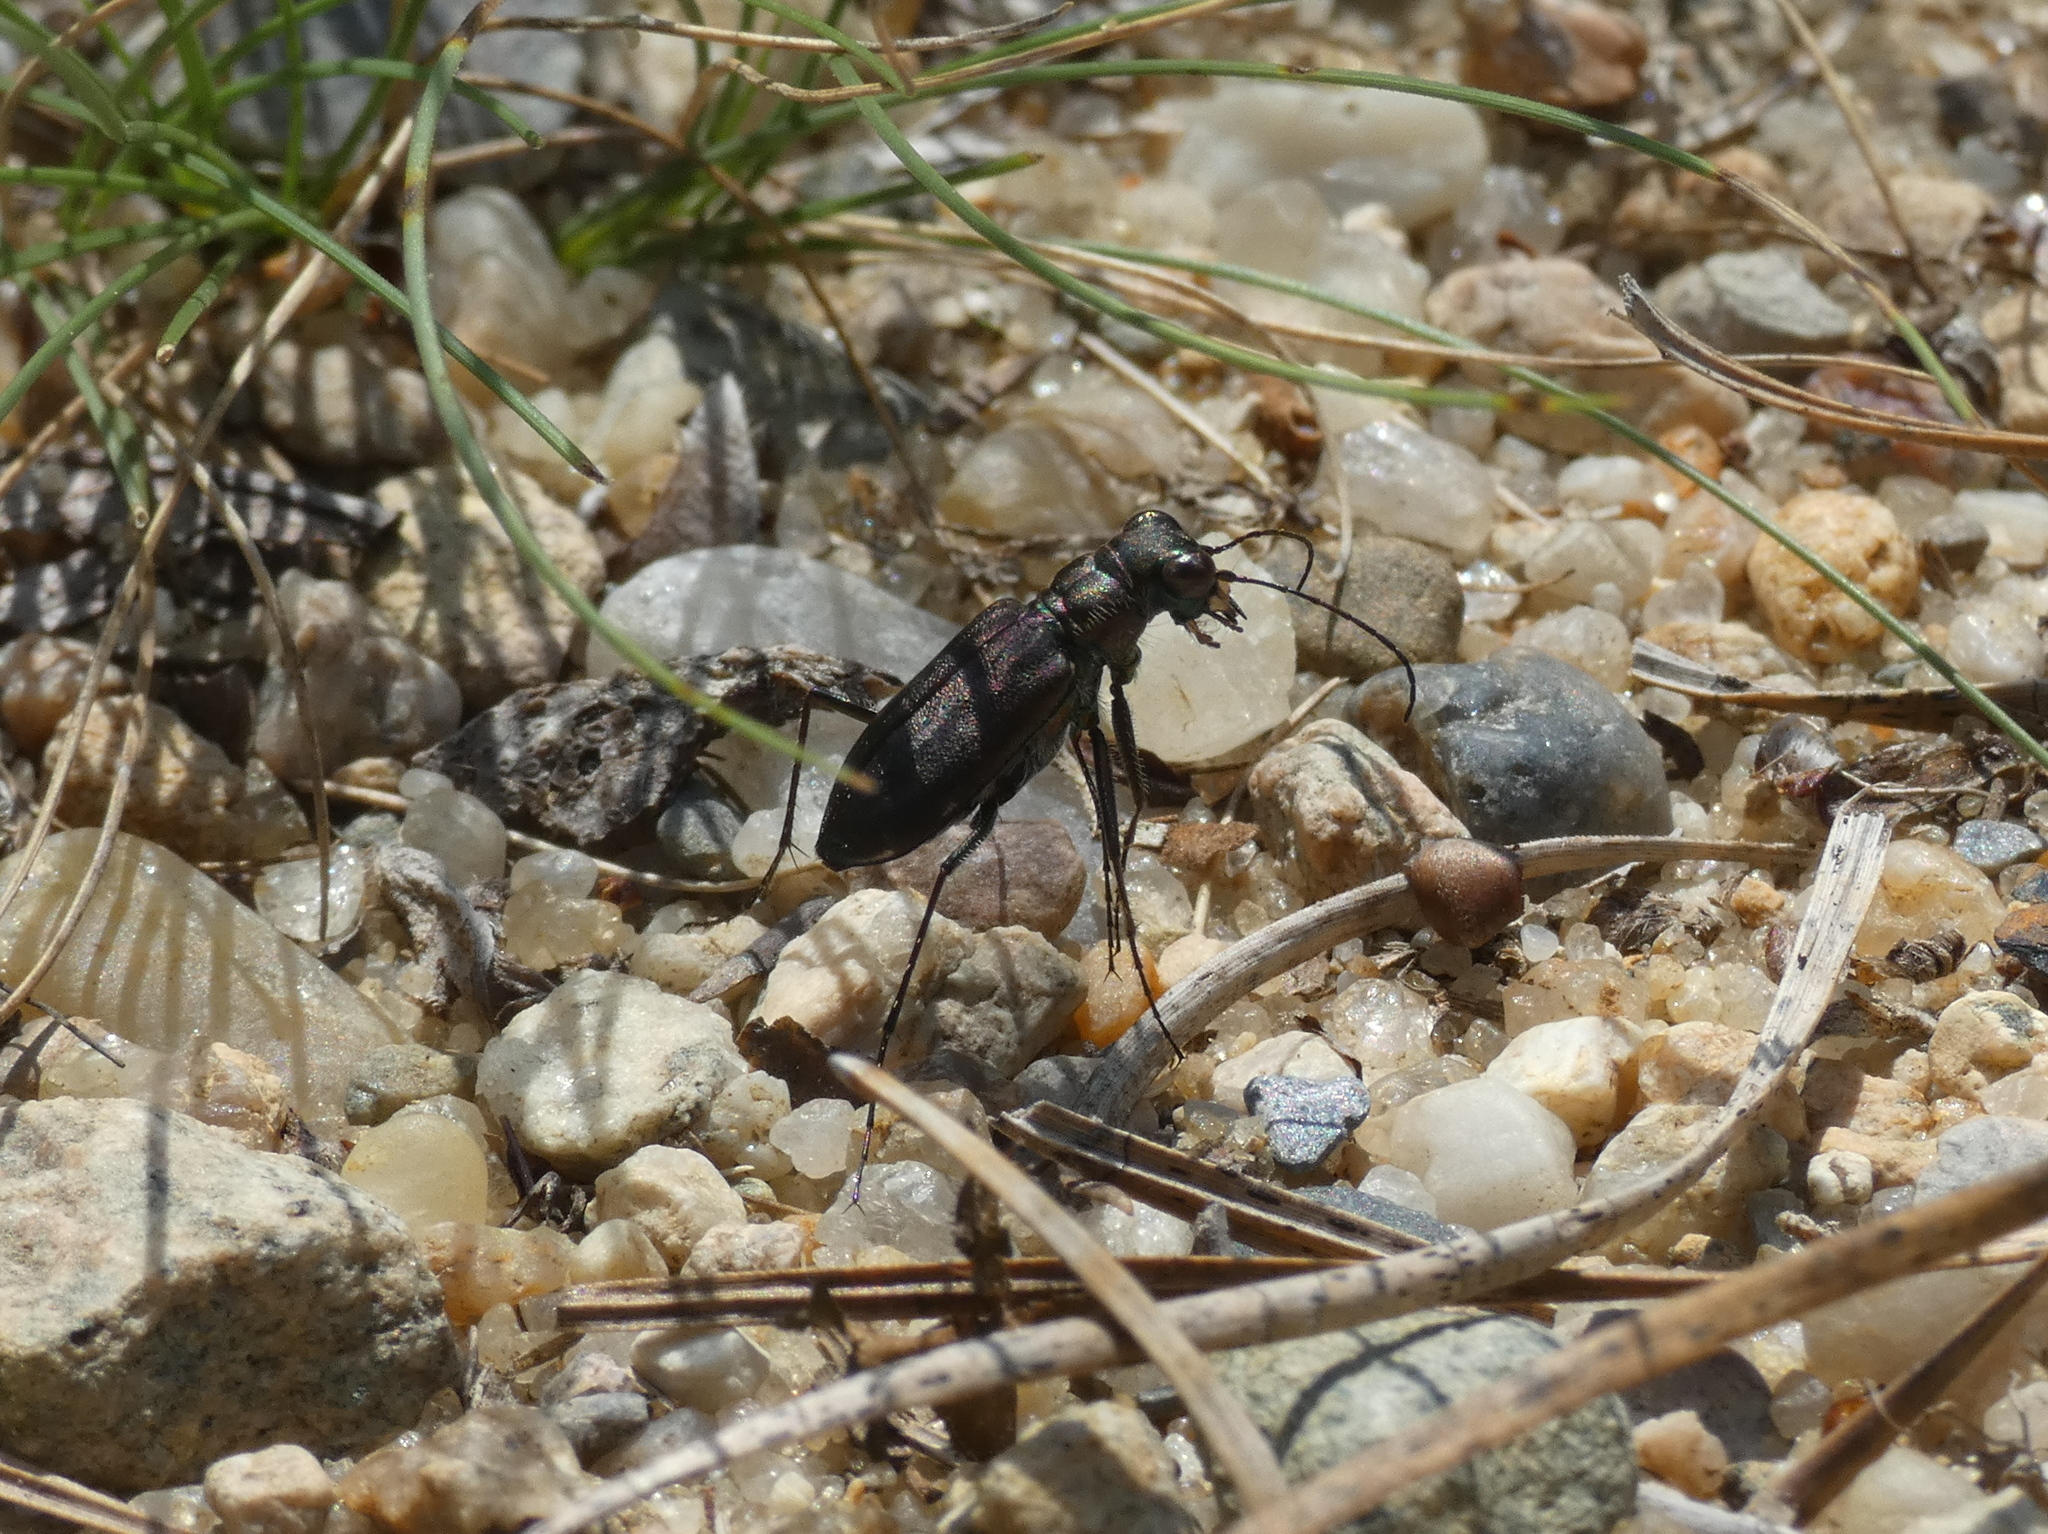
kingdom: Animalia
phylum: Arthropoda
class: Insecta
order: Coleoptera
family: Carabidae
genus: Cicindela
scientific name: Cicindela punctulata
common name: Punctured tiger beetle
